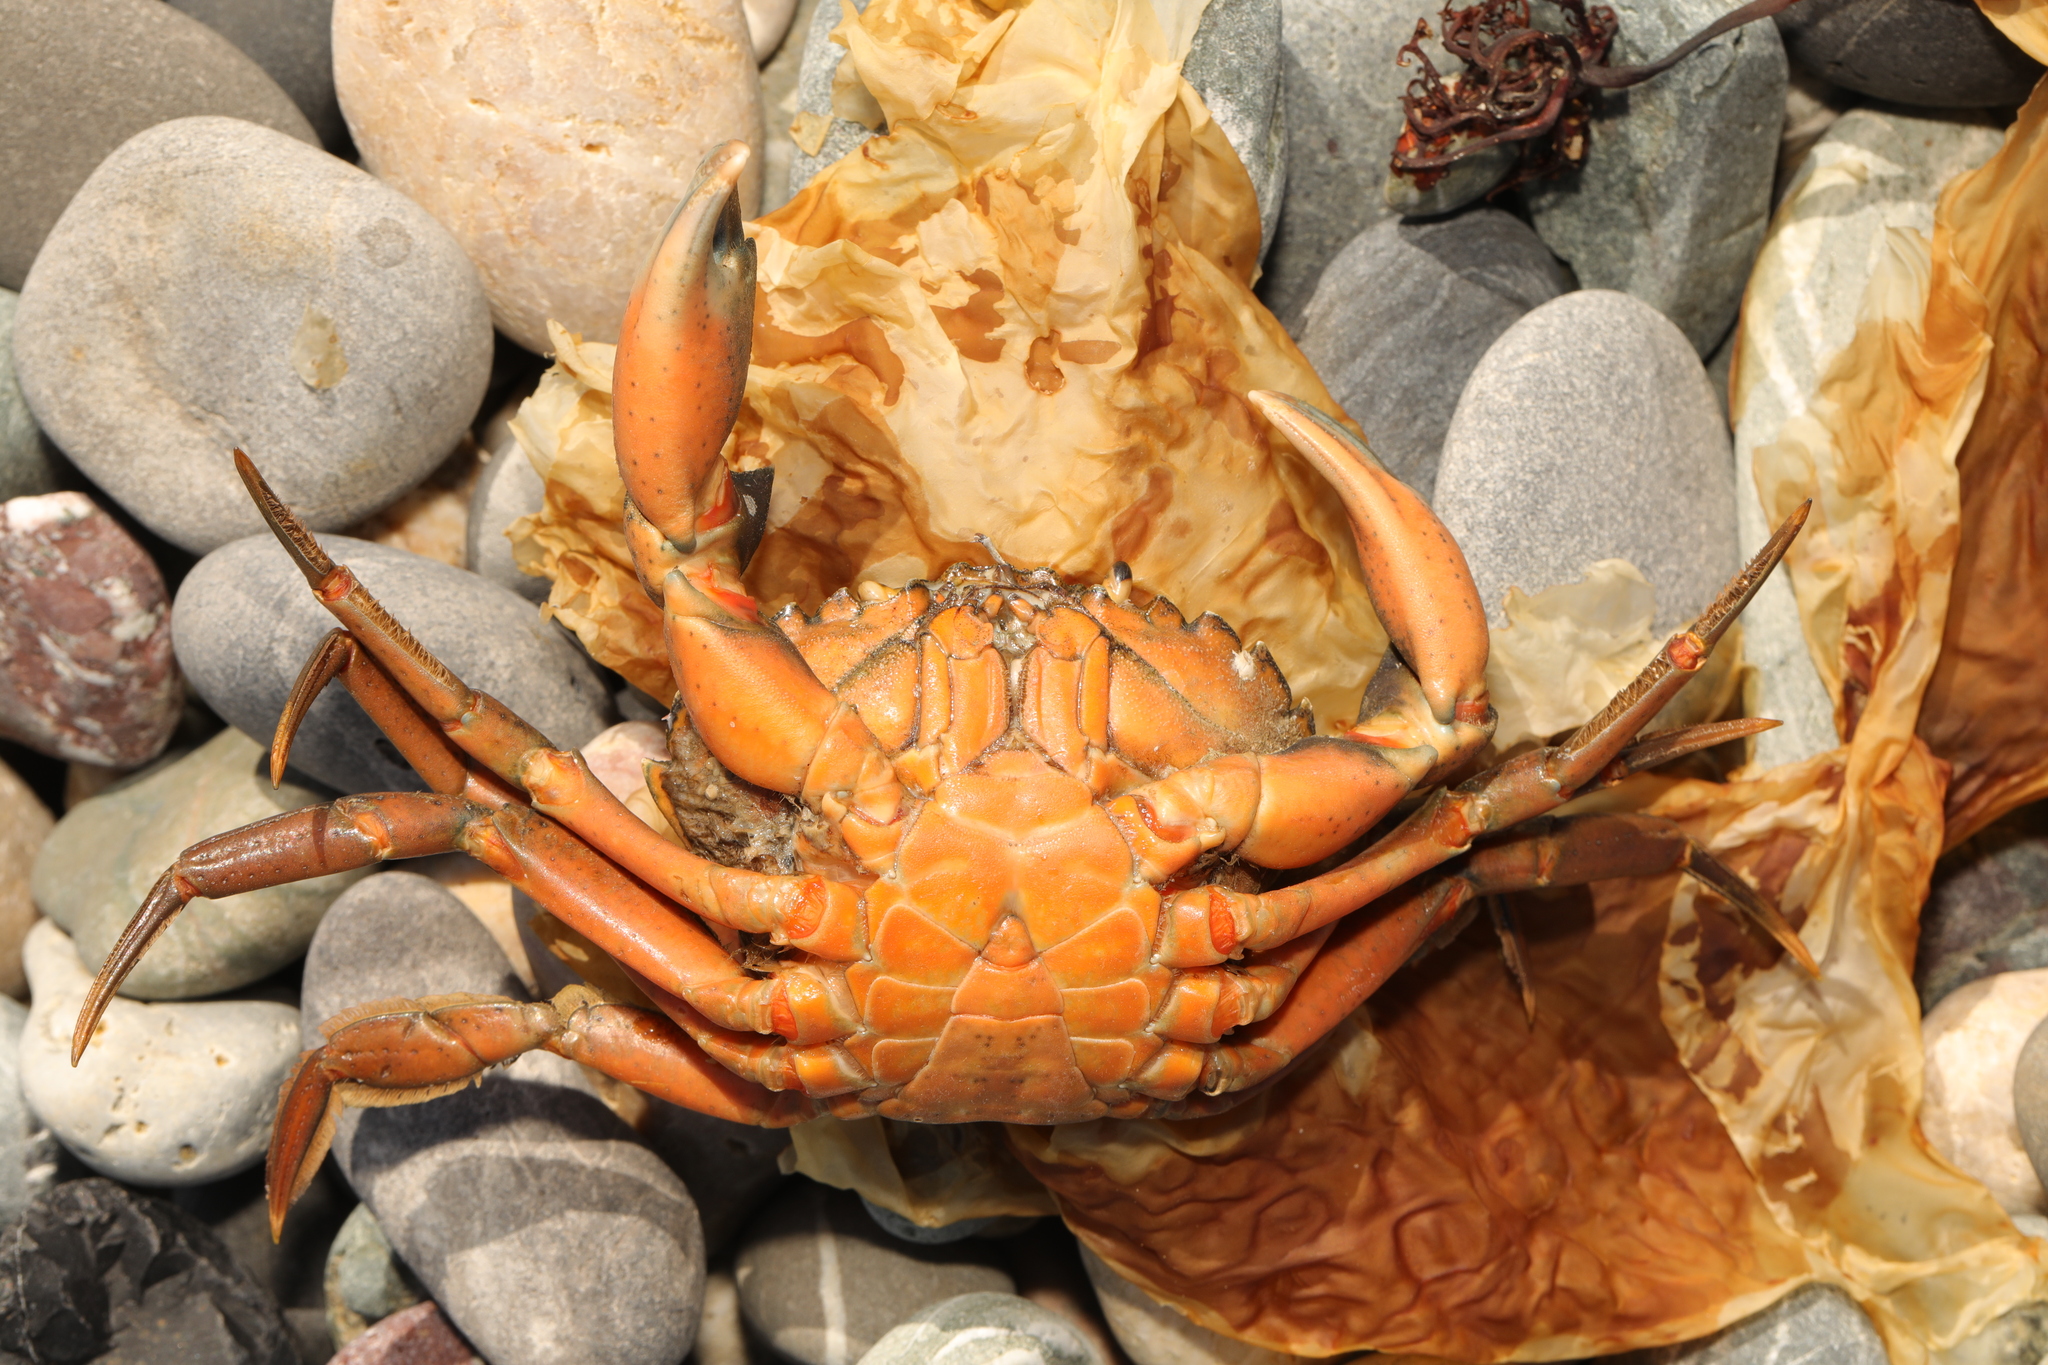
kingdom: Animalia
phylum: Arthropoda
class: Malacostraca
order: Decapoda
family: Carcinidae
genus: Carcinus
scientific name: Carcinus maenas
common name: European green crab
